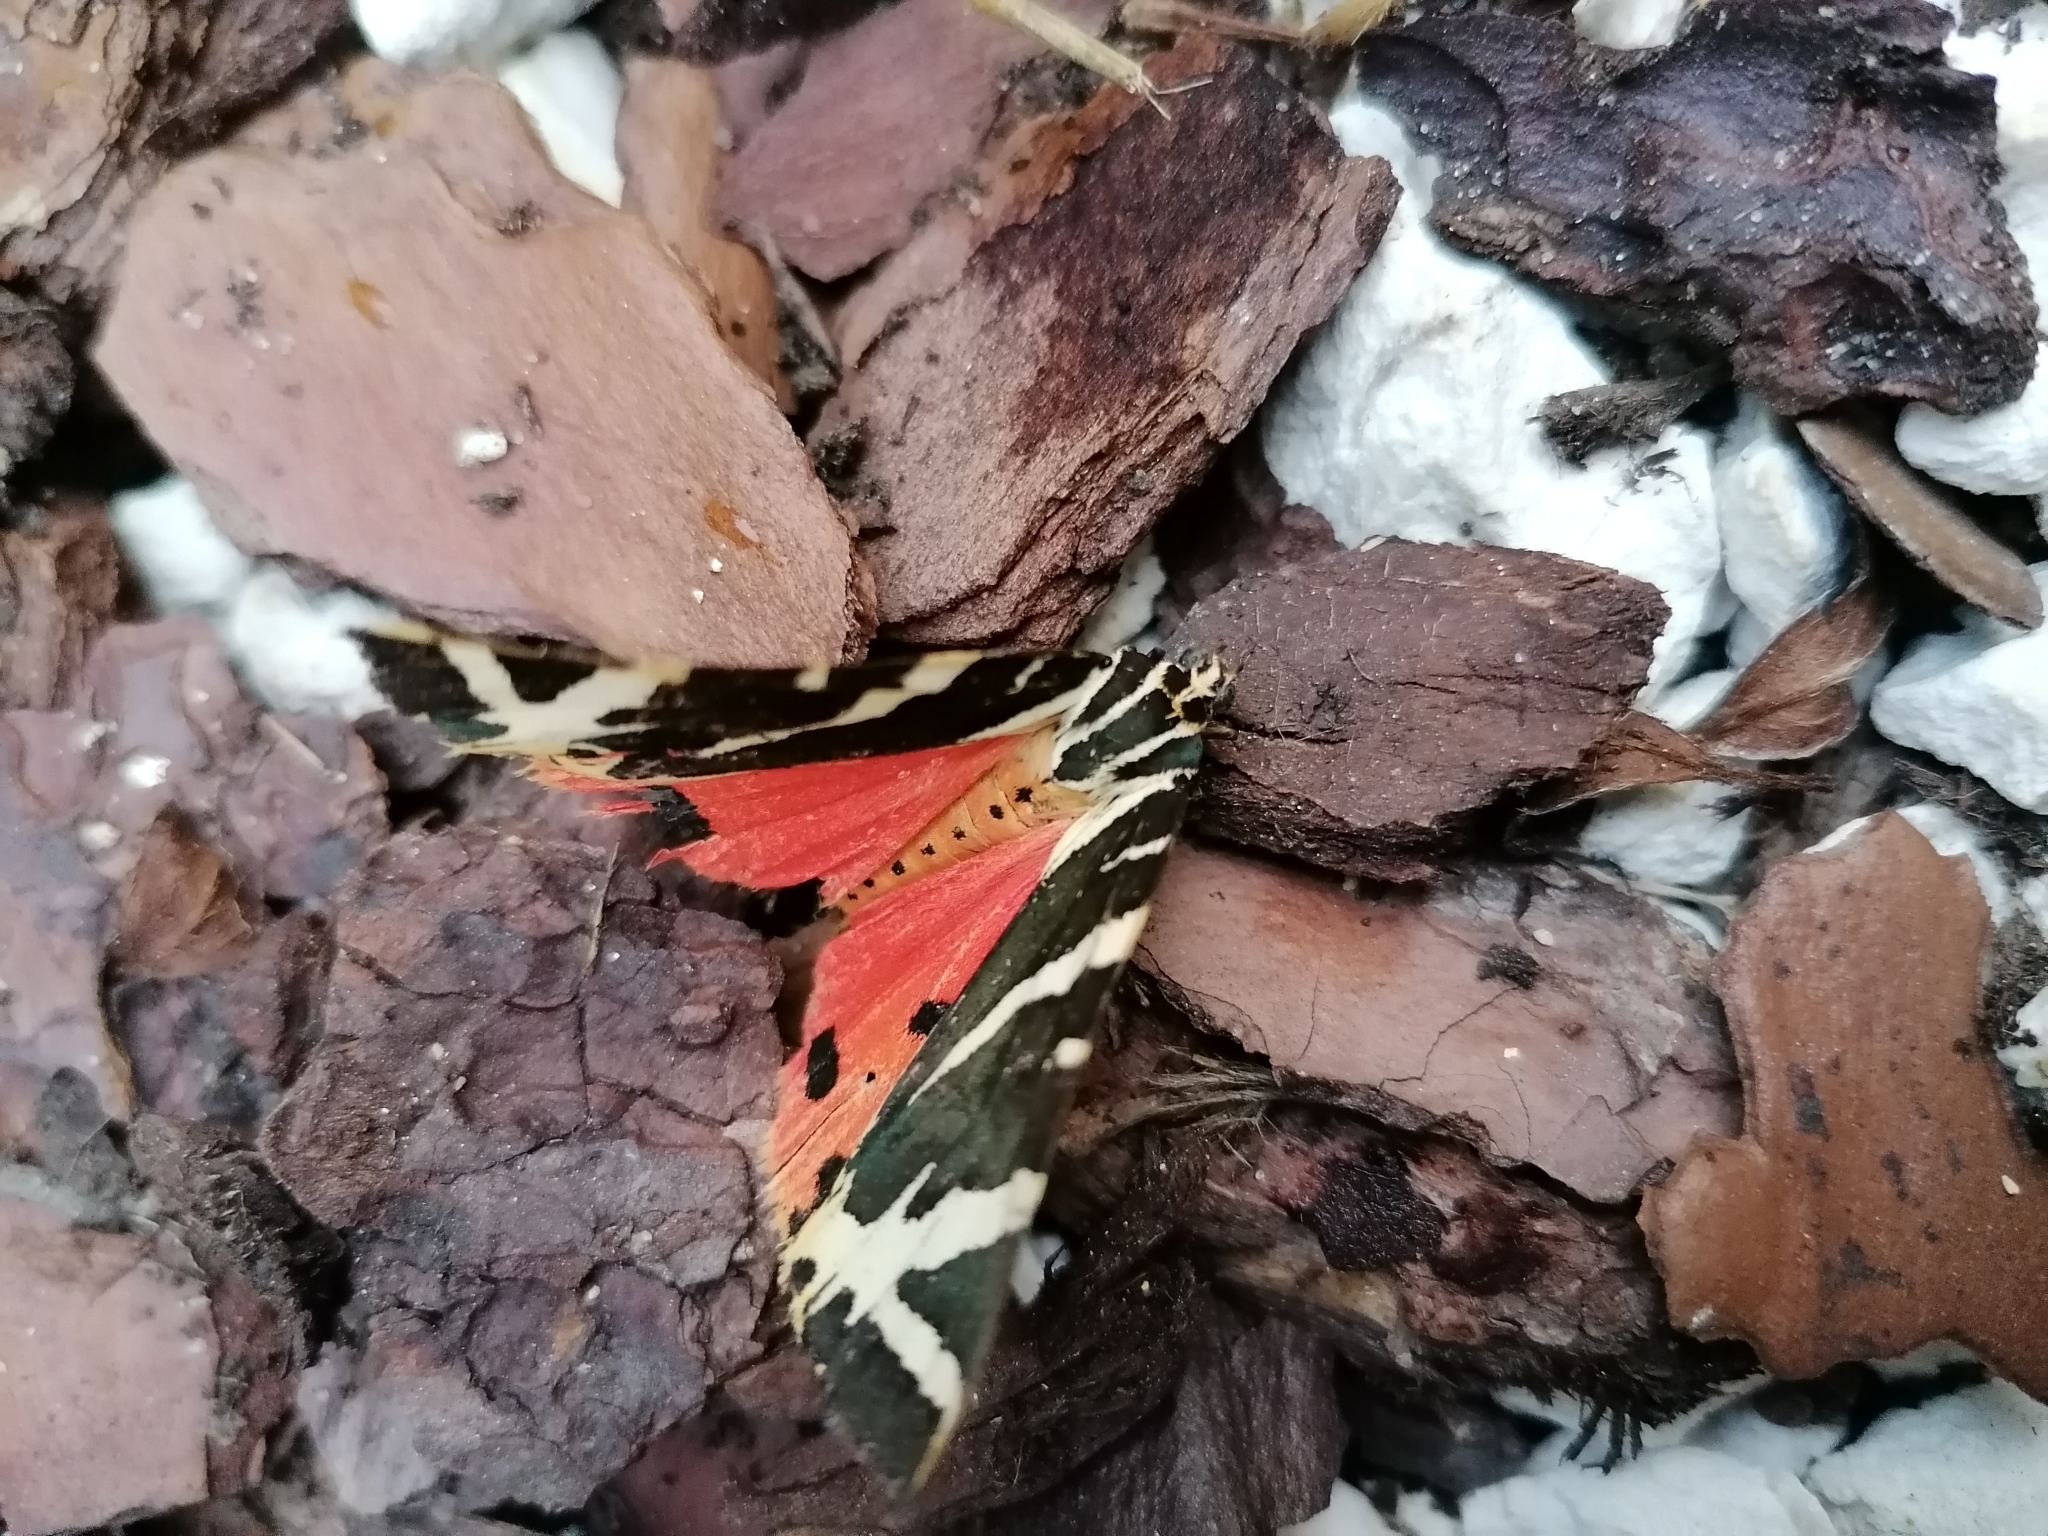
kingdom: Animalia
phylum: Arthropoda
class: Insecta
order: Lepidoptera
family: Erebidae
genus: Euplagia
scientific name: Euplagia quadripunctaria
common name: Jersey tiger
